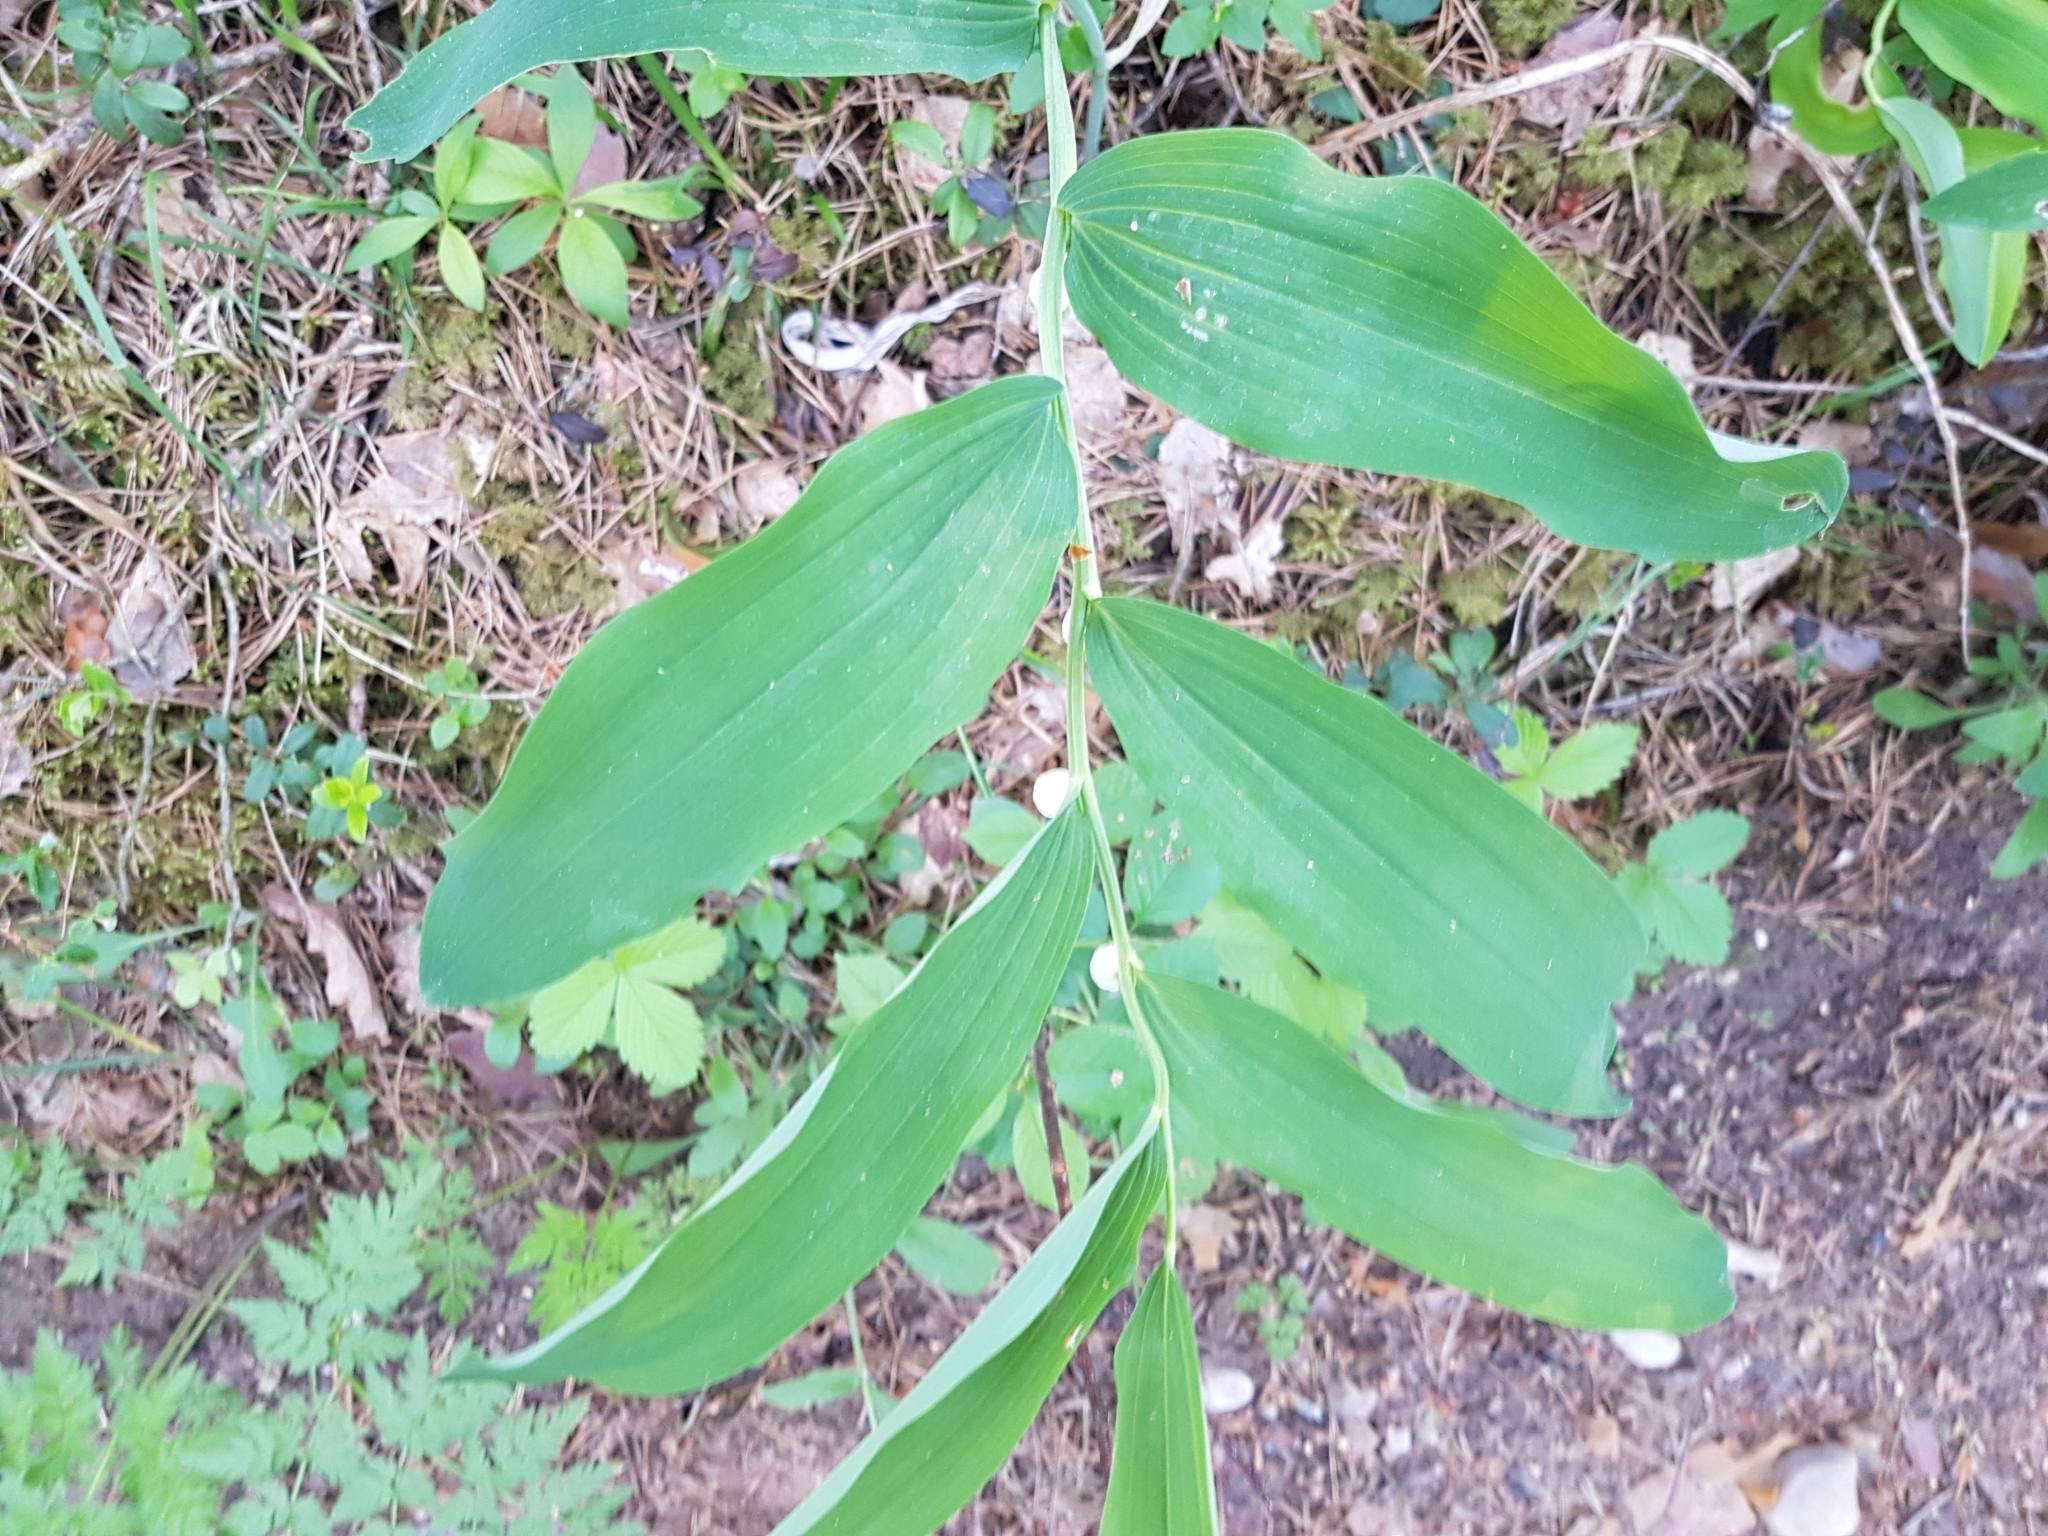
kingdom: Plantae
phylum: Tracheophyta
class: Liliopsida
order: Asparagales
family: Asparagaceae
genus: Polygonatum
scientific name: Polygonatum odoratum
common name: Angular solomon's-seal
